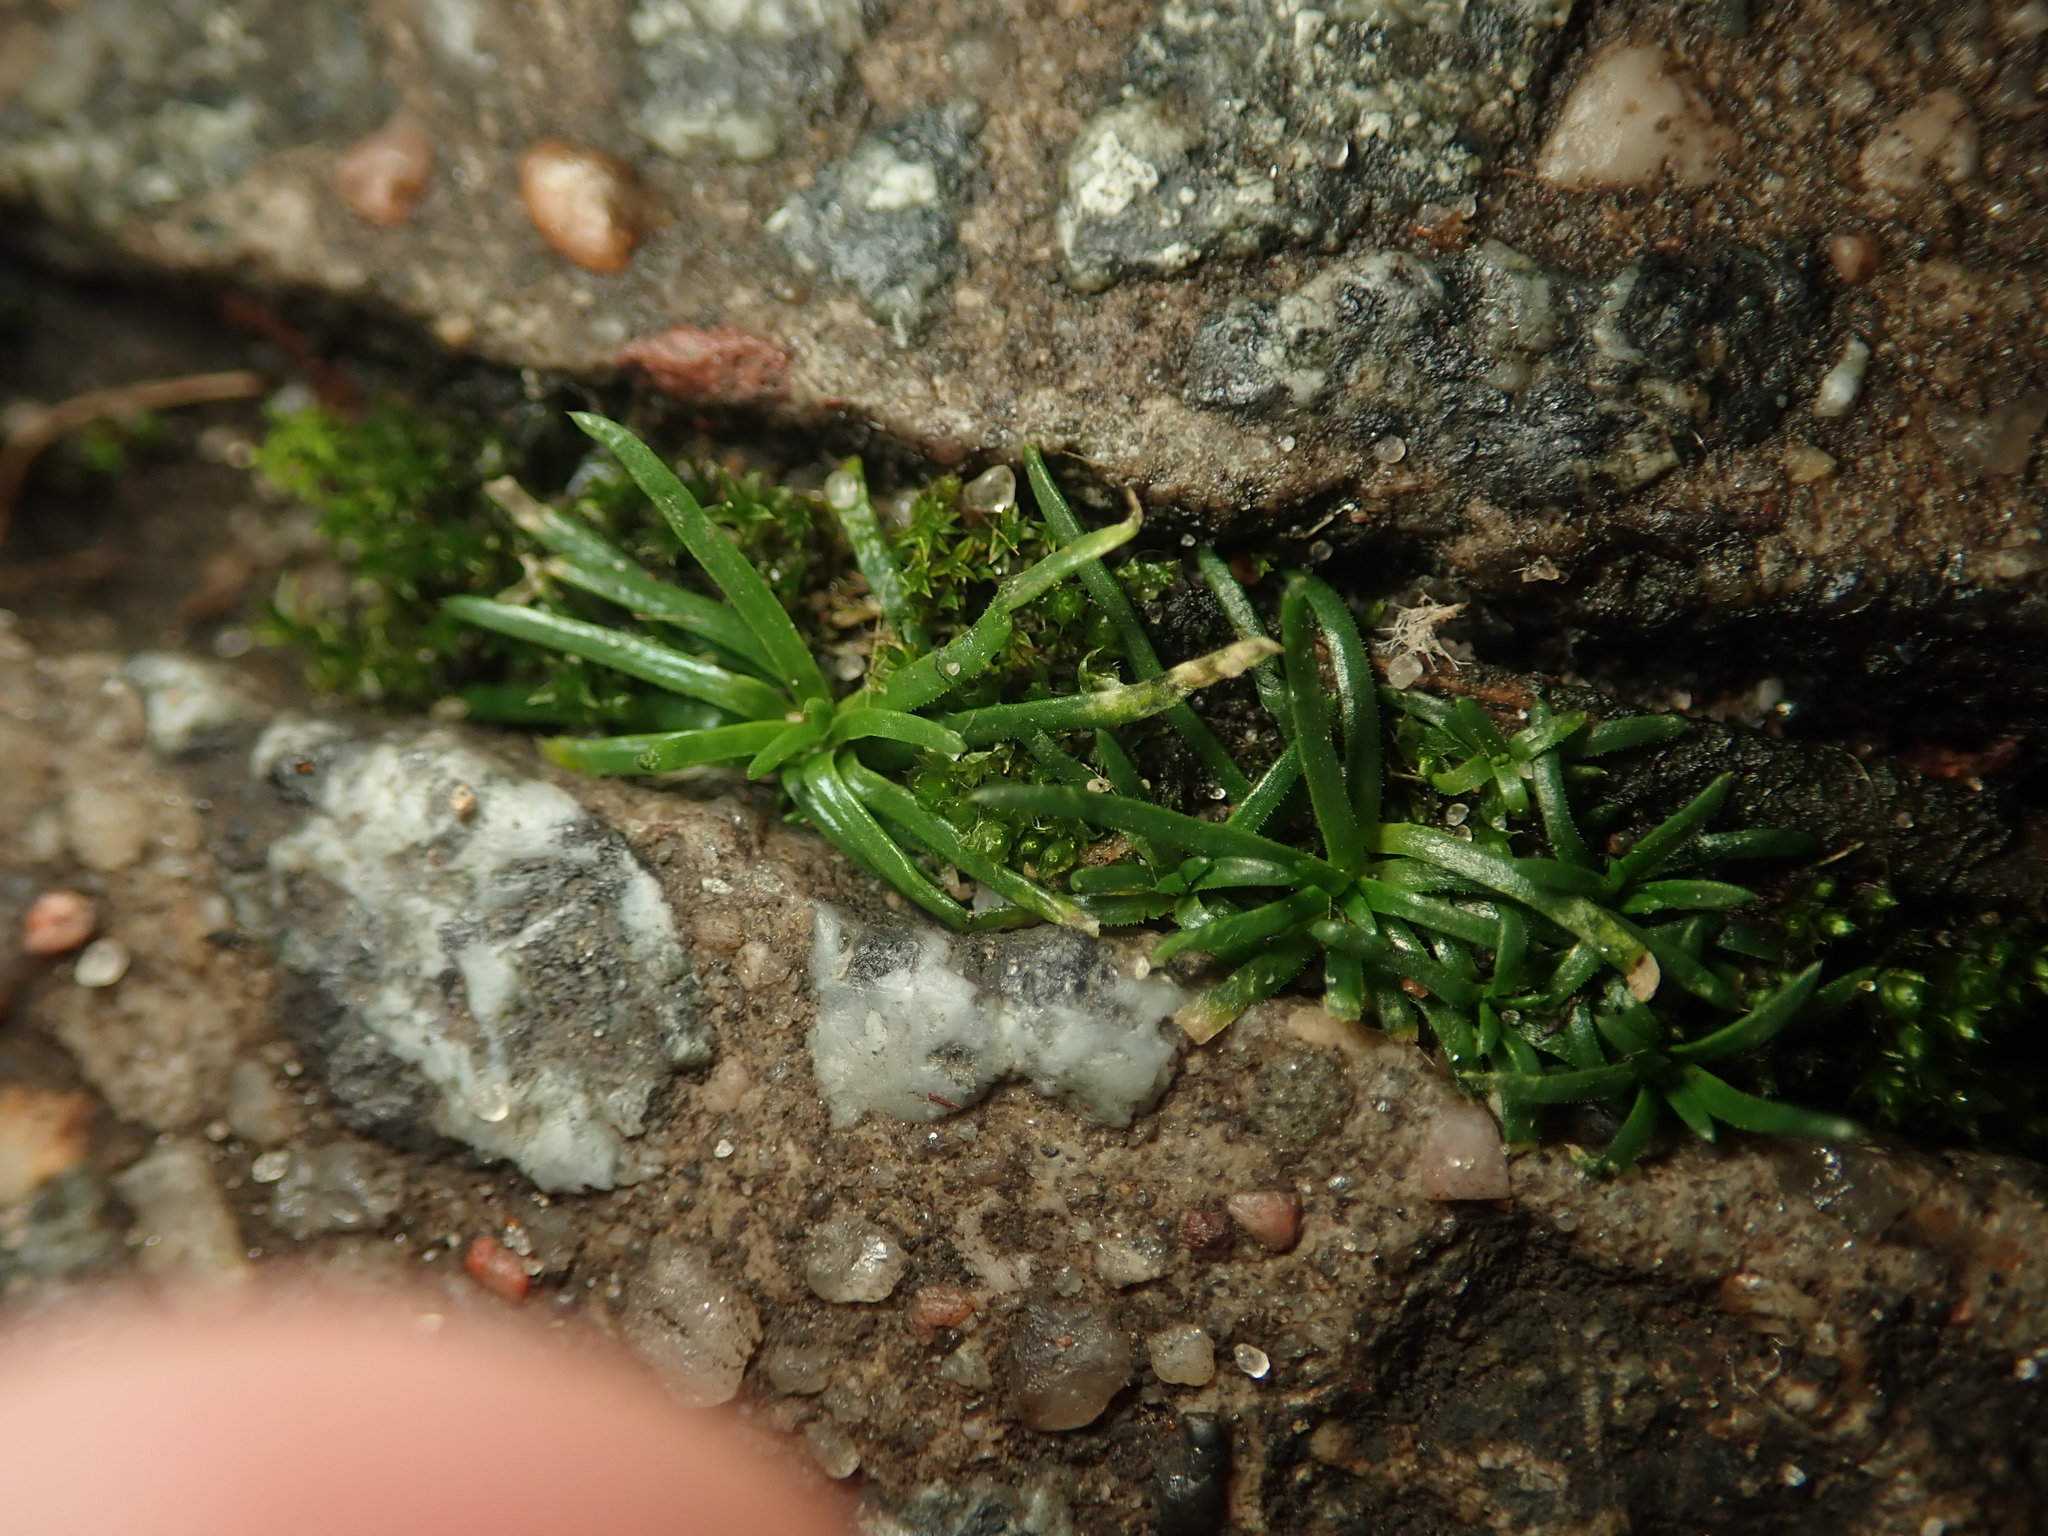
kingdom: Plantae
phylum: Tracheophyta
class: Magnoliopsida
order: Caryophyllales
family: Caryophyllaceae
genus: Sagina
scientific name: Sagina procumbens
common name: Procumbent pearlwort
